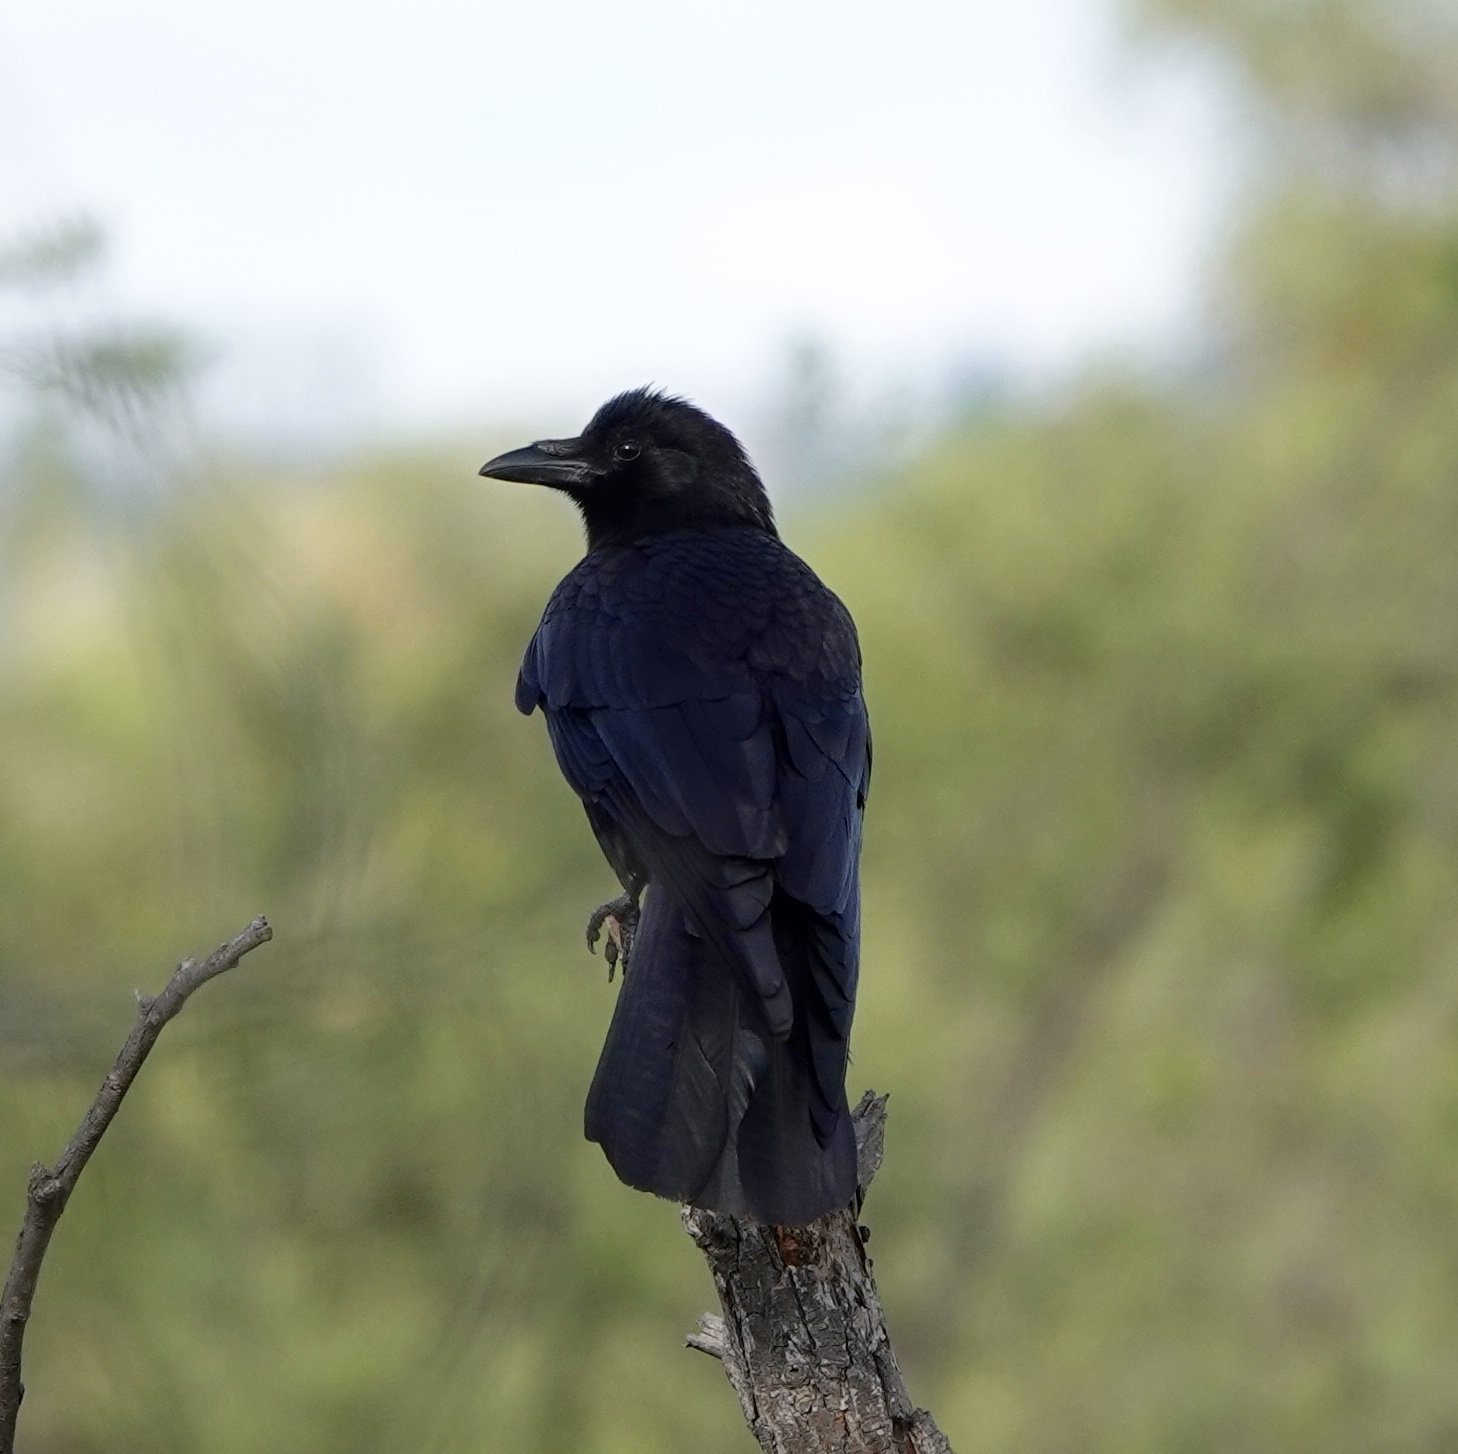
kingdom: Animalia
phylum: Chordata
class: Aves
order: Passeriformes
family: Corvidae
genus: Corvus
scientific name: Corvus brachyrhynchos
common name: American crow
